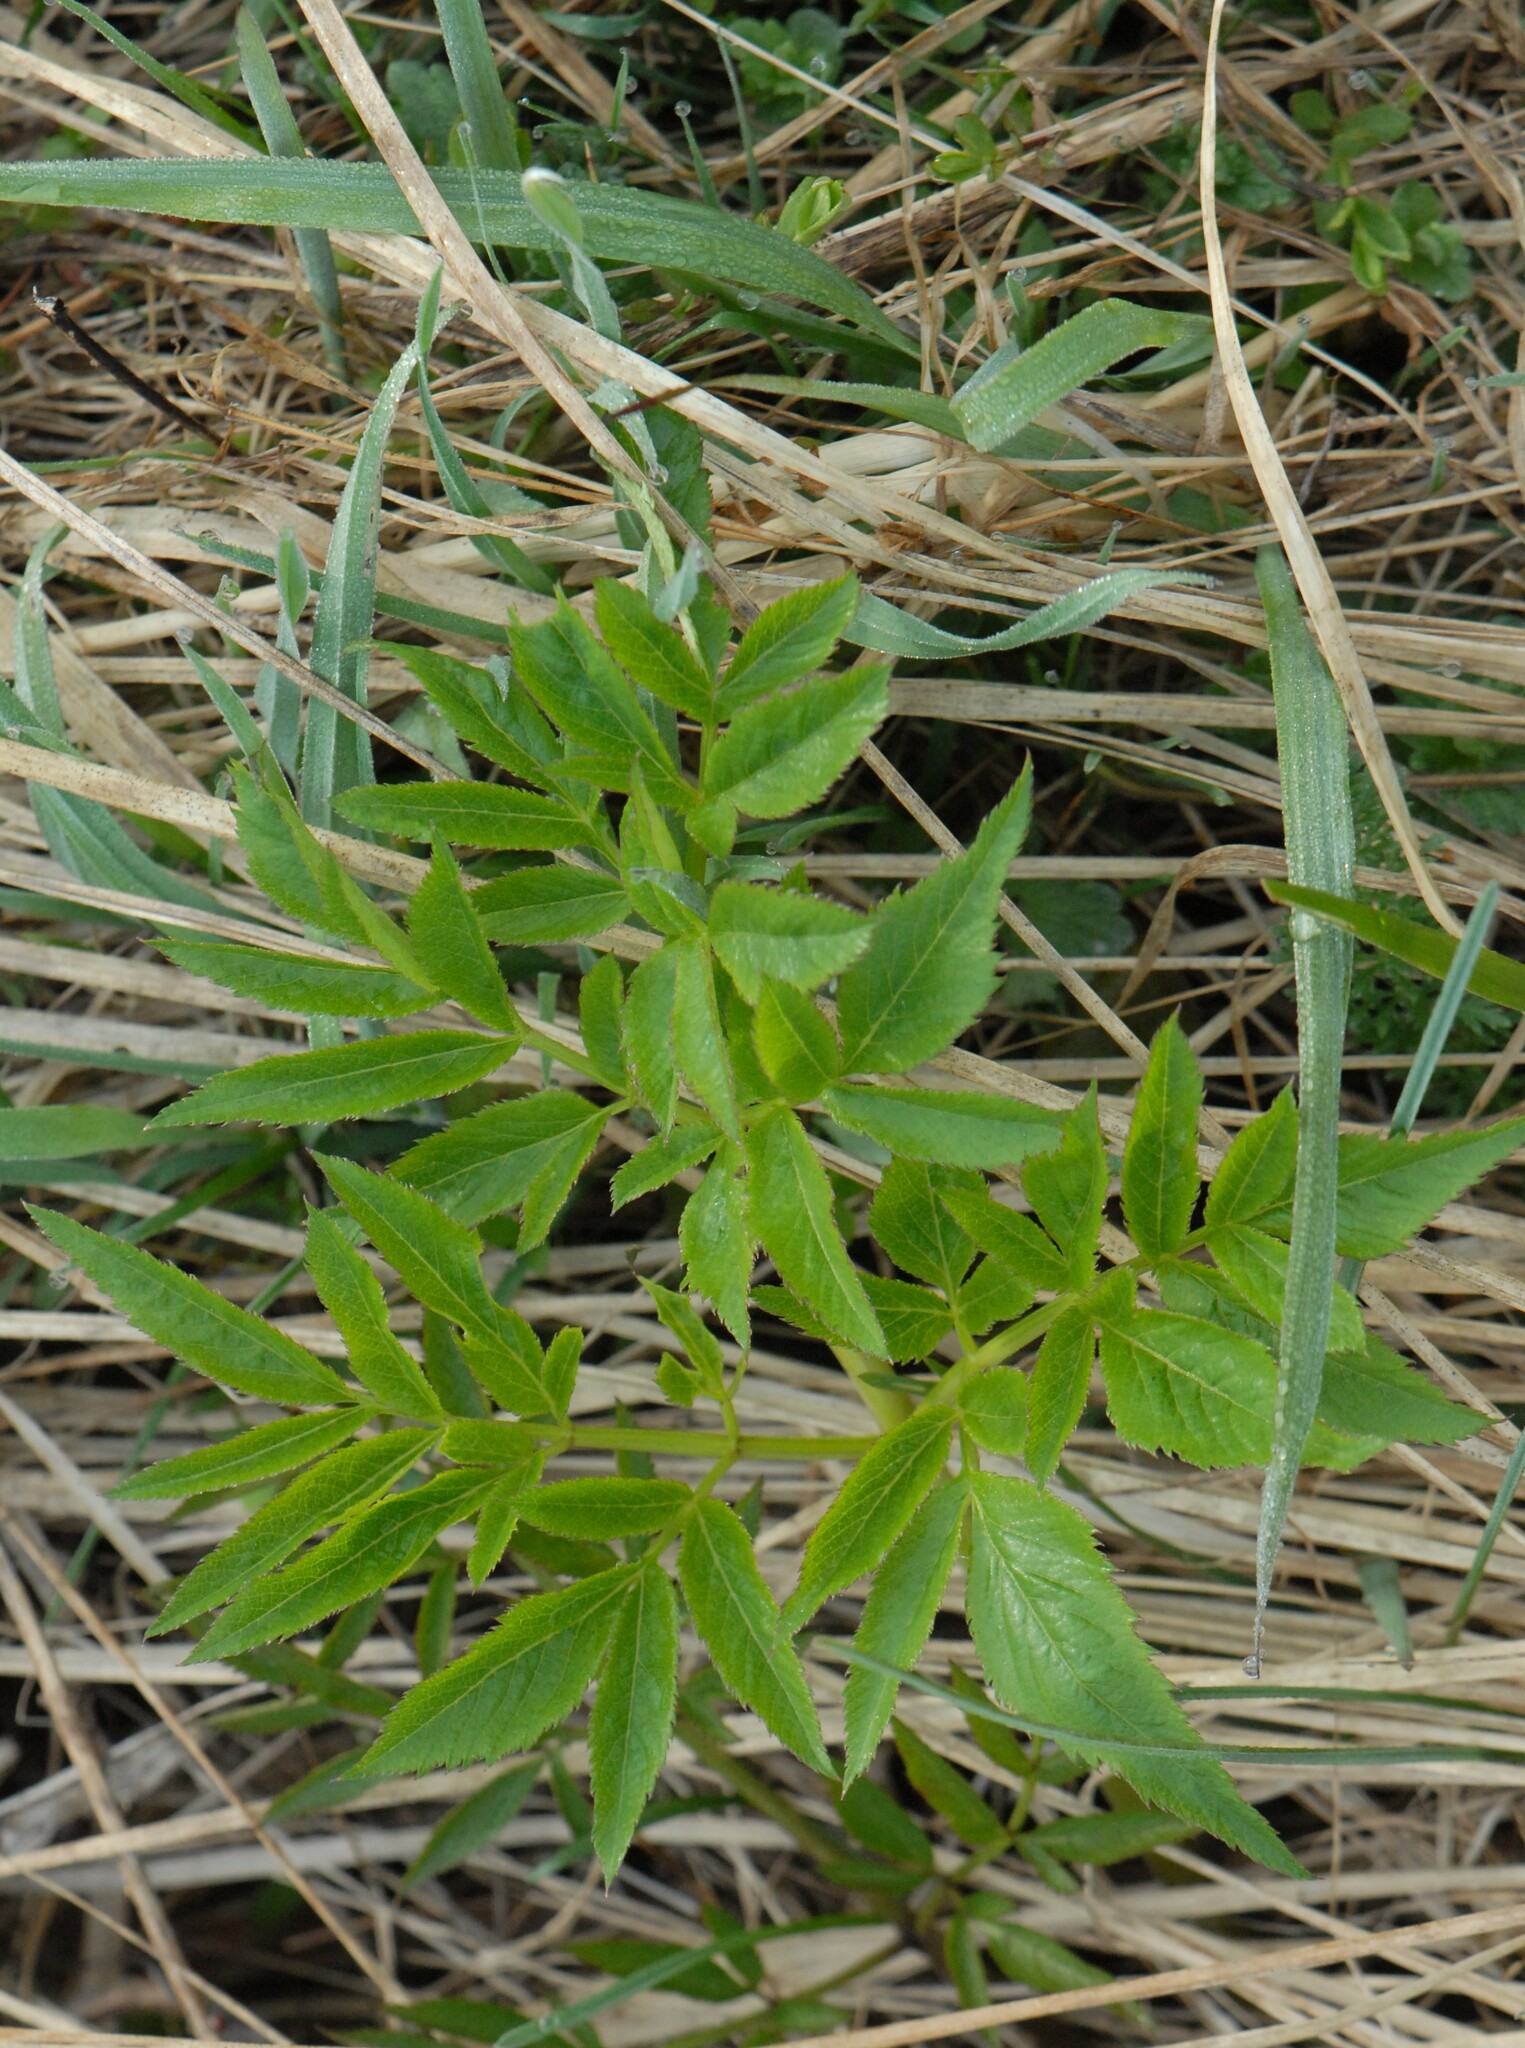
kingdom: Plantae
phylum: Tracheophyta
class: Magnoliopsida
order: Apiales
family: Apiaceae
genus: Angelica
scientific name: Angelica sylvestris
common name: Wild angelica
